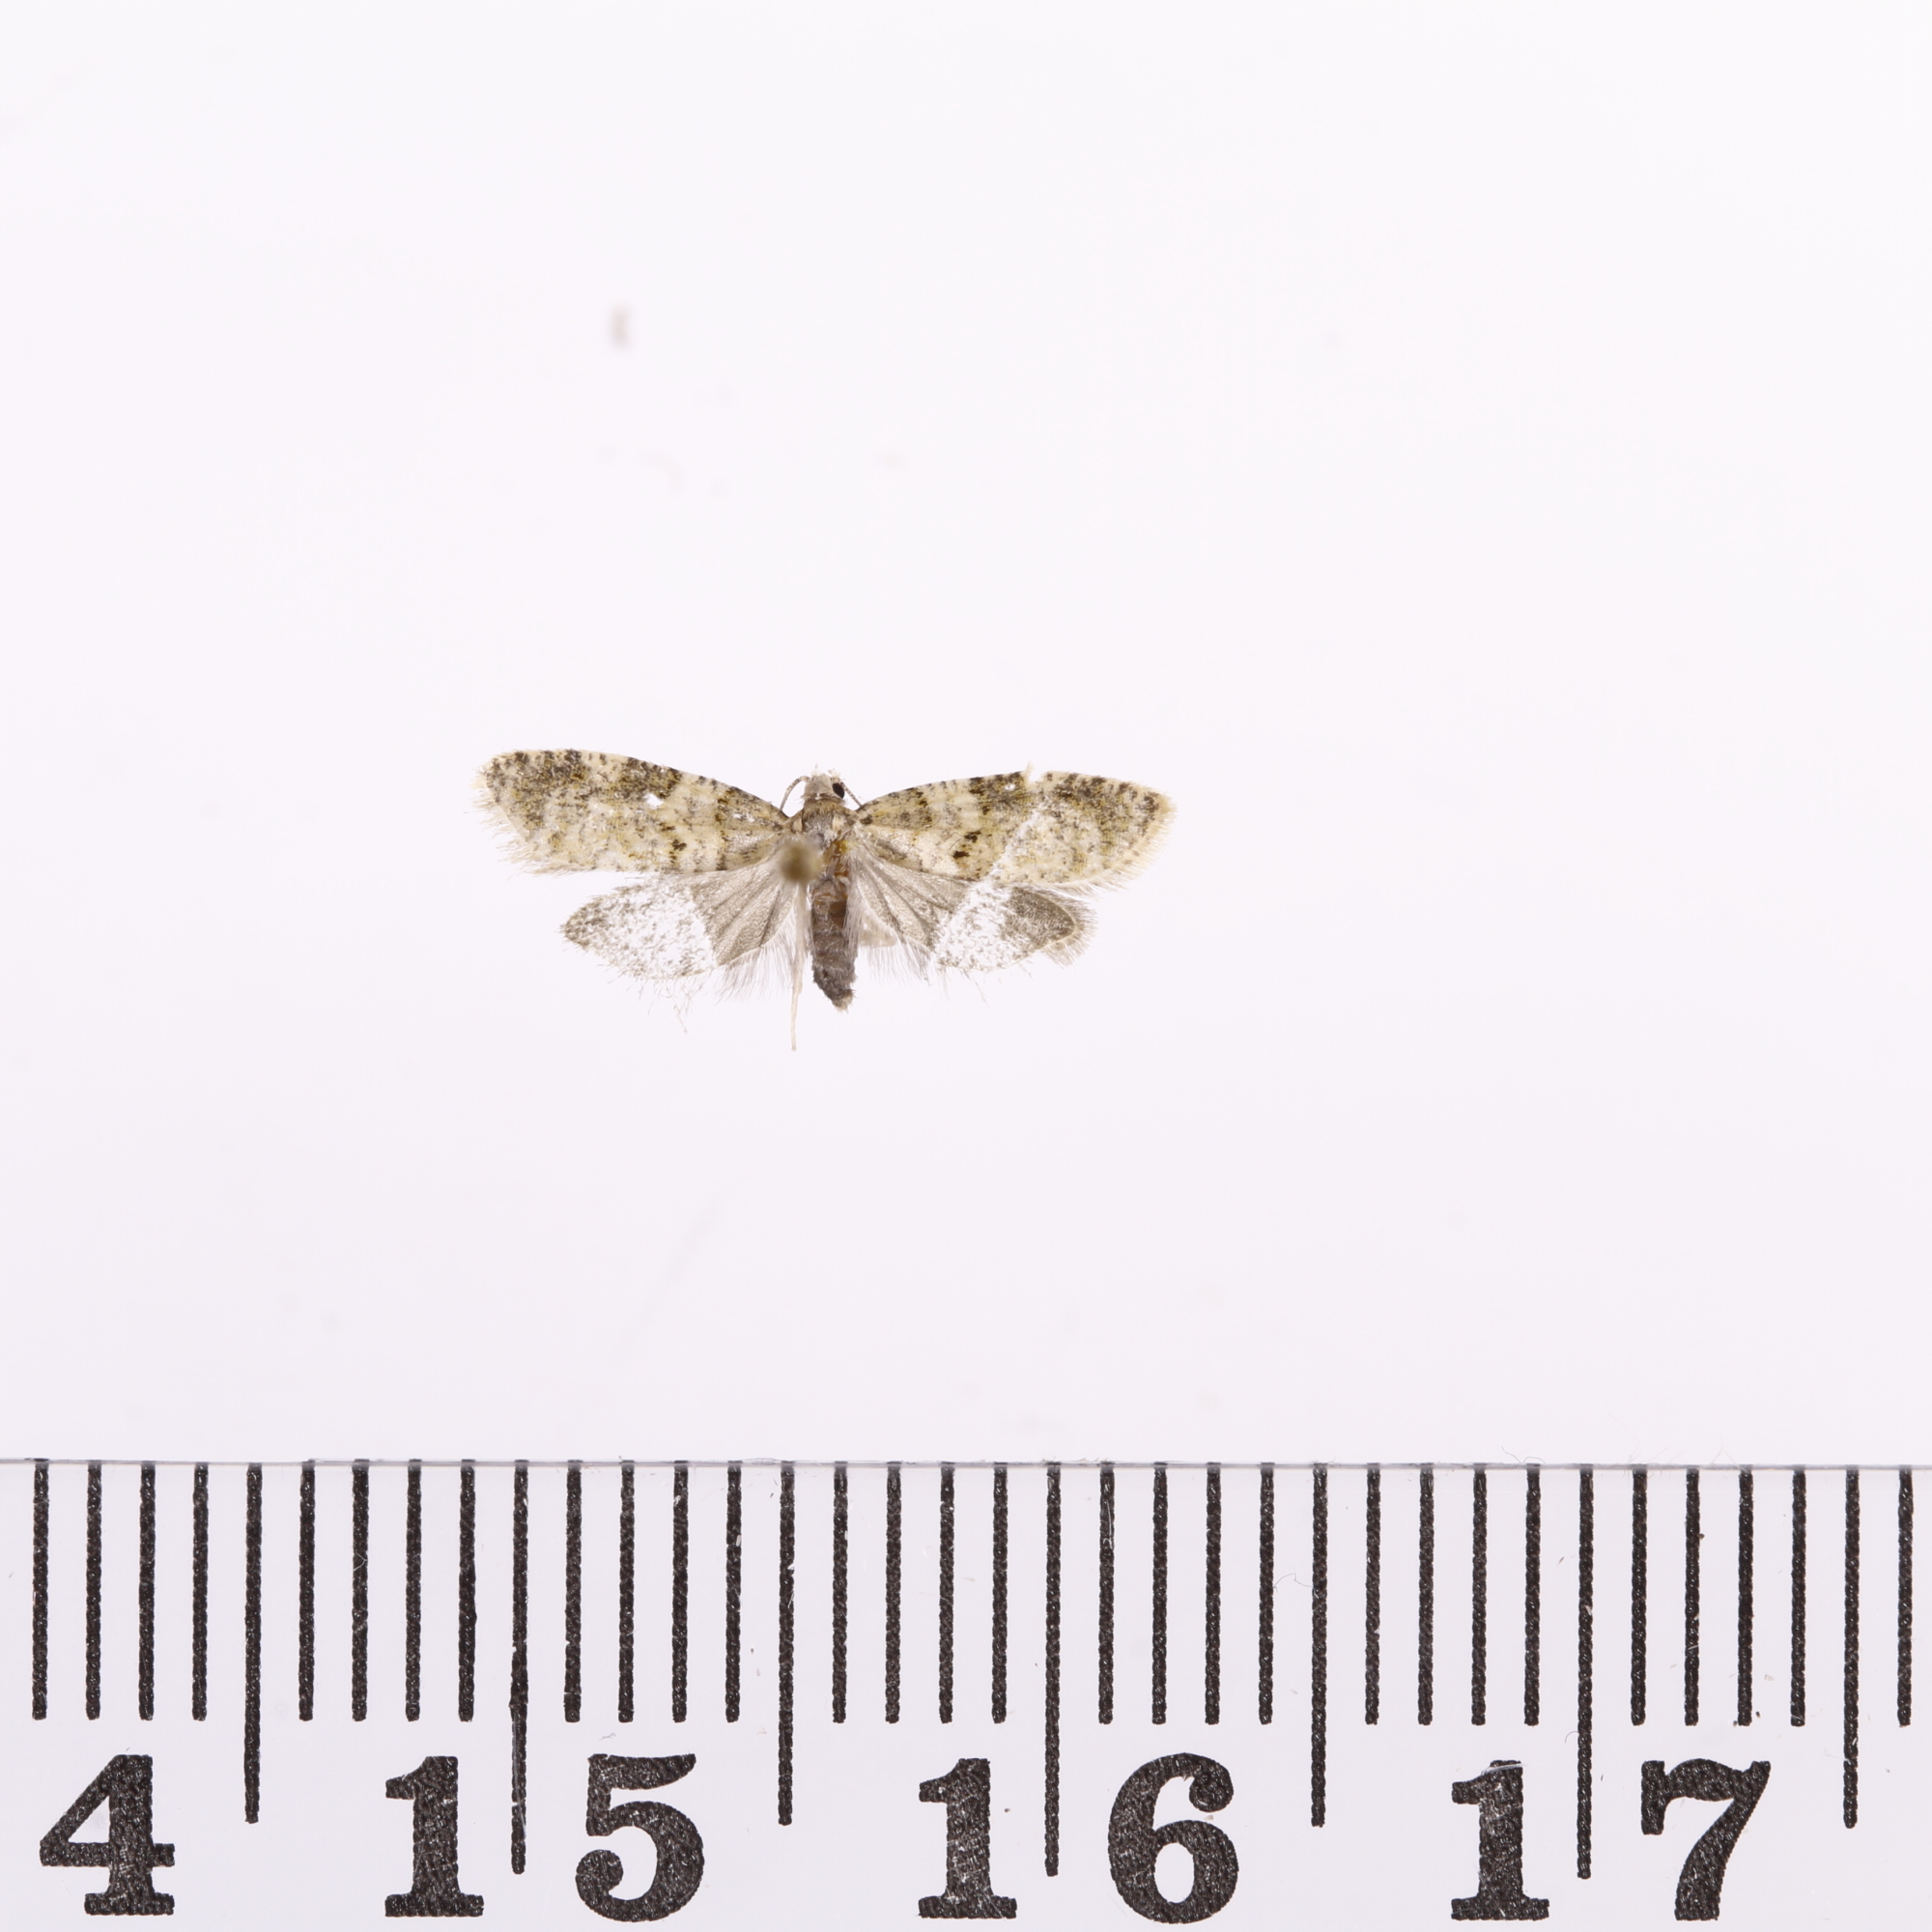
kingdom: Animalia
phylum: Arthropoda
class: Insecta
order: Lepidoptera
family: Tortricidae
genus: Dipterina
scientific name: Dipterina imbriferana
